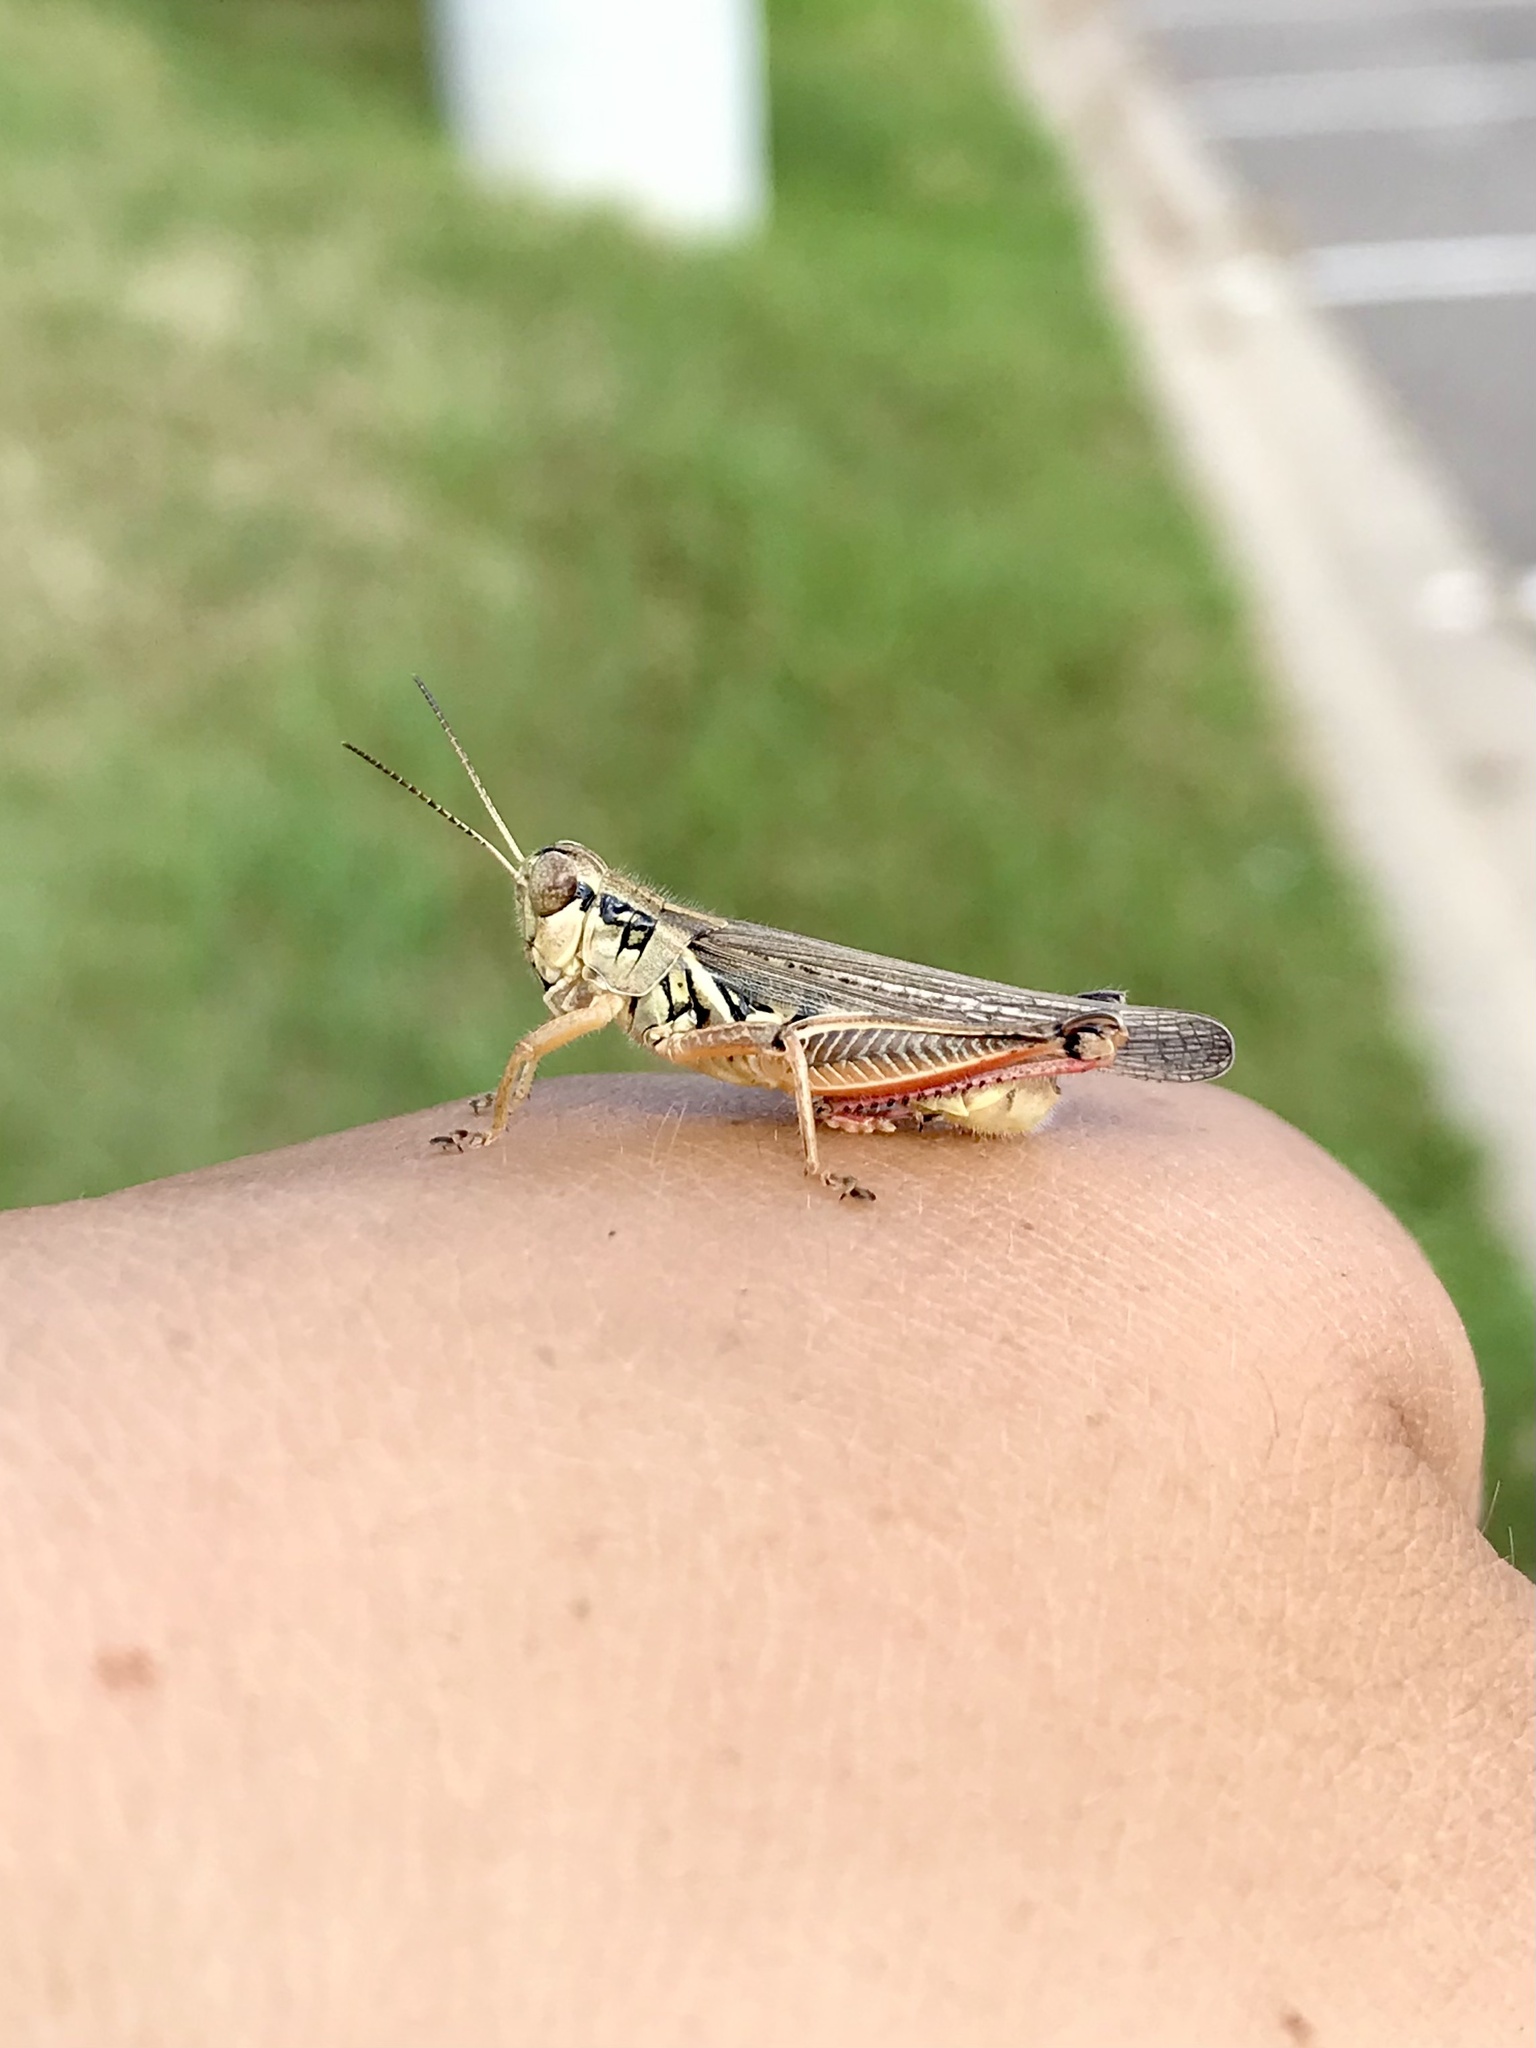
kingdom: Animalia
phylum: Arthropoda
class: Insecta
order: Orthoptera
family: Acrididae
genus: Melanoplus
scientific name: Melanoplus femurrubrum
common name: Red-legged grasshopper
